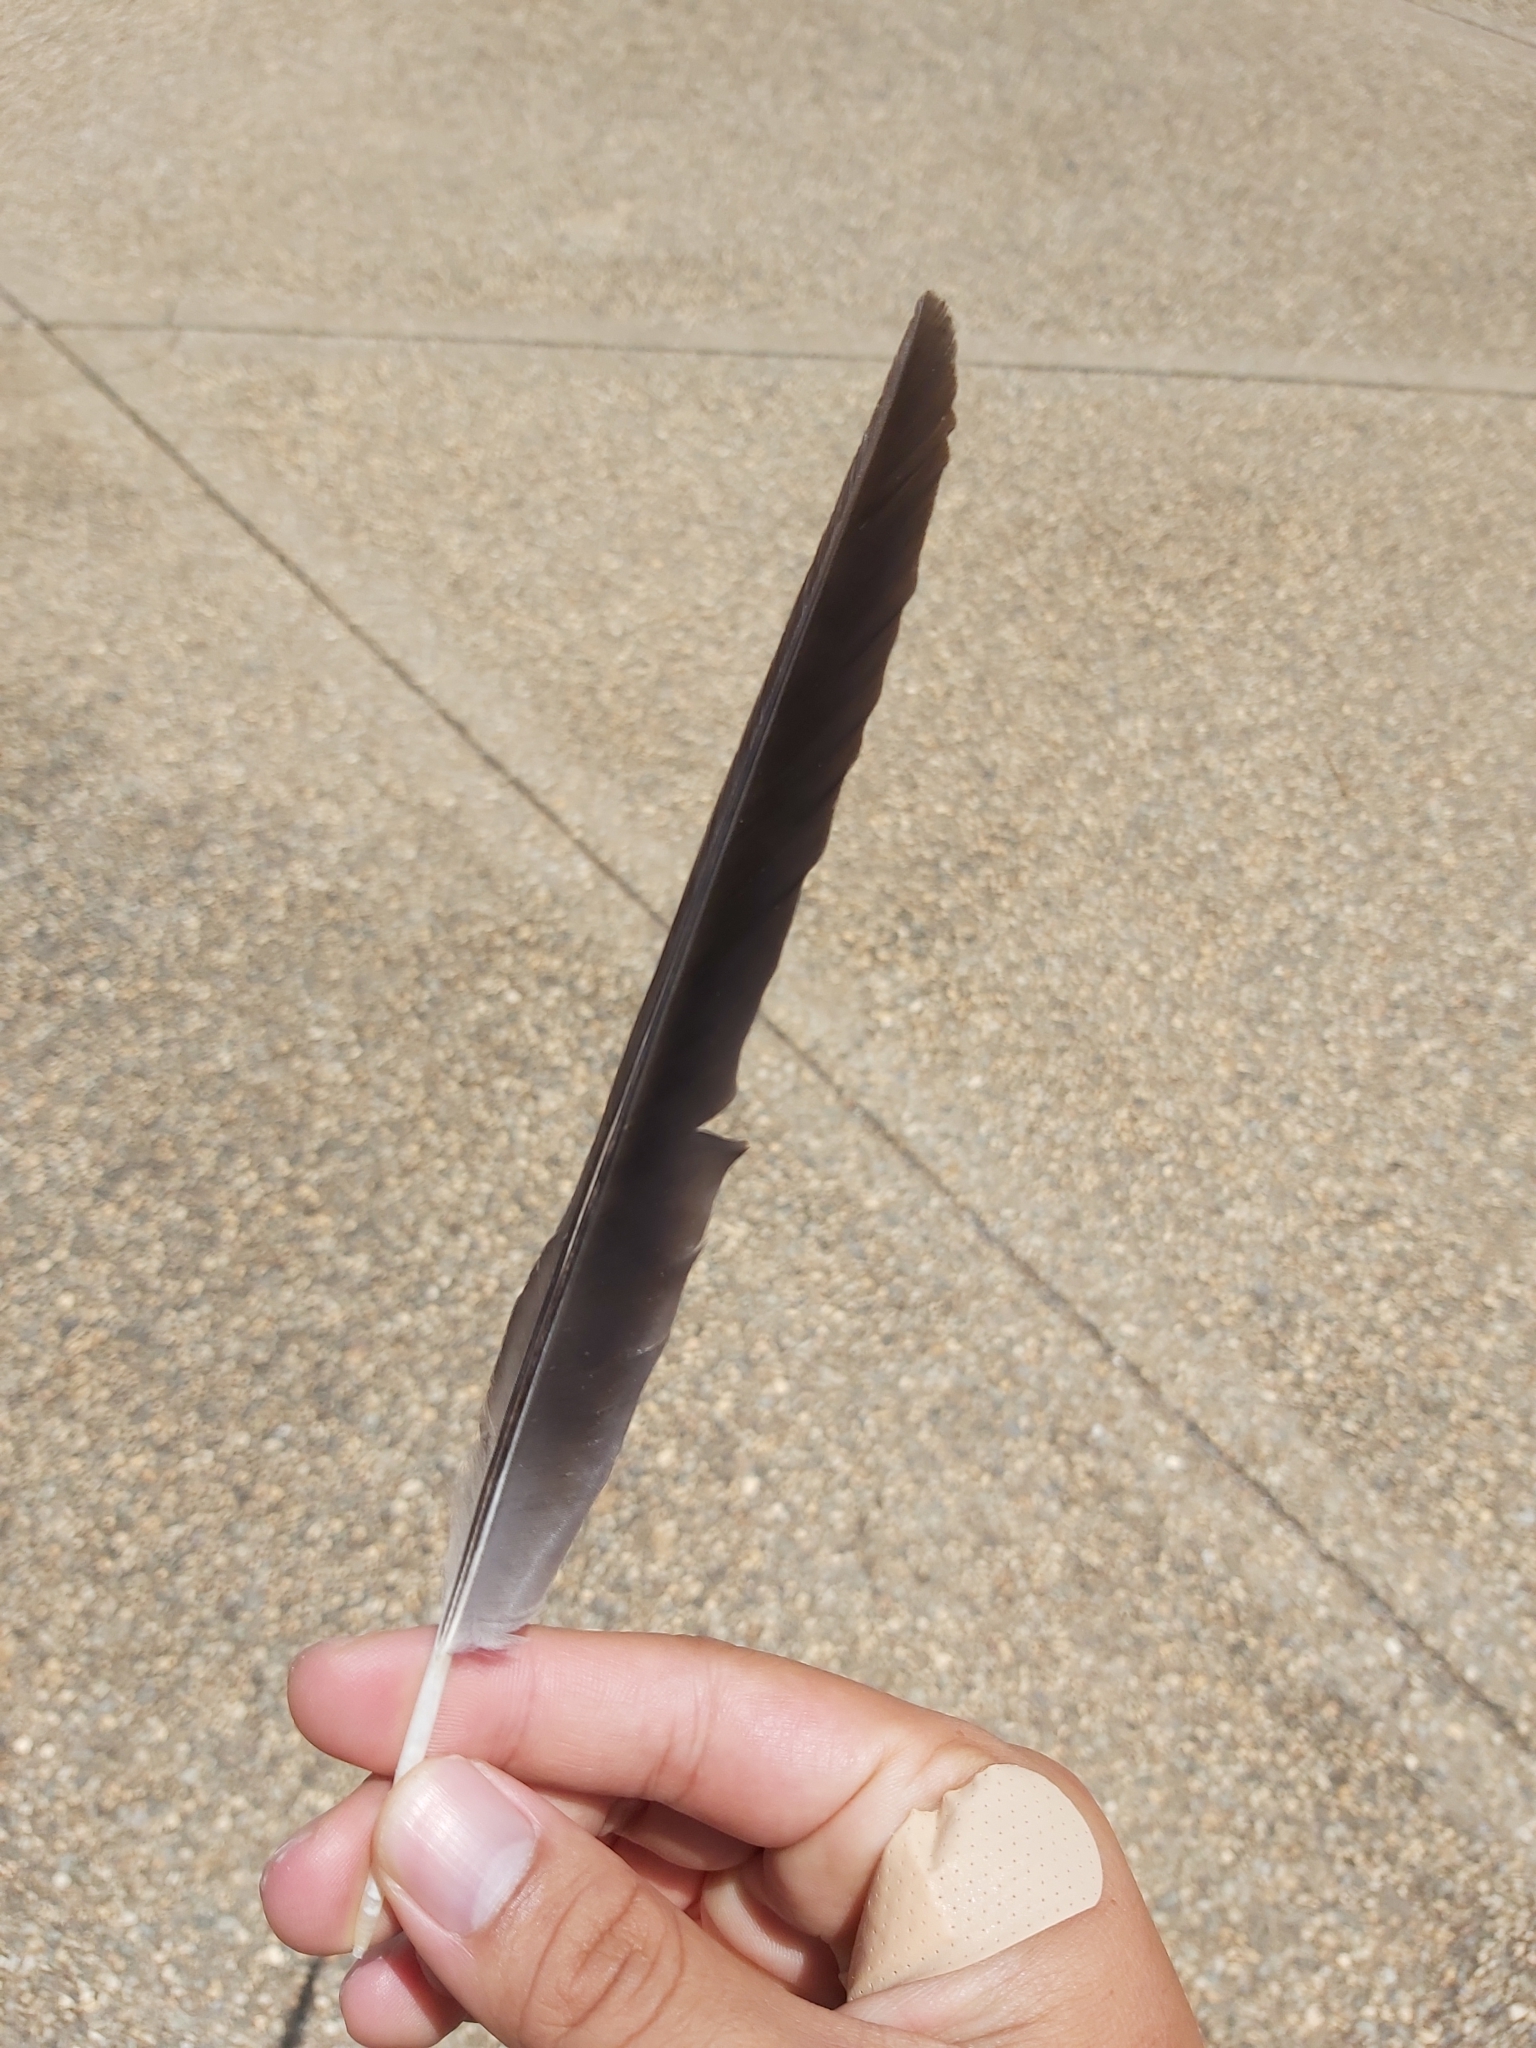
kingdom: Animalia
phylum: Chordata
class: Aves
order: Passeriformes
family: Cracticidae
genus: Gymnorhina
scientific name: Gymnorhina tibicen
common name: Australian magpie
